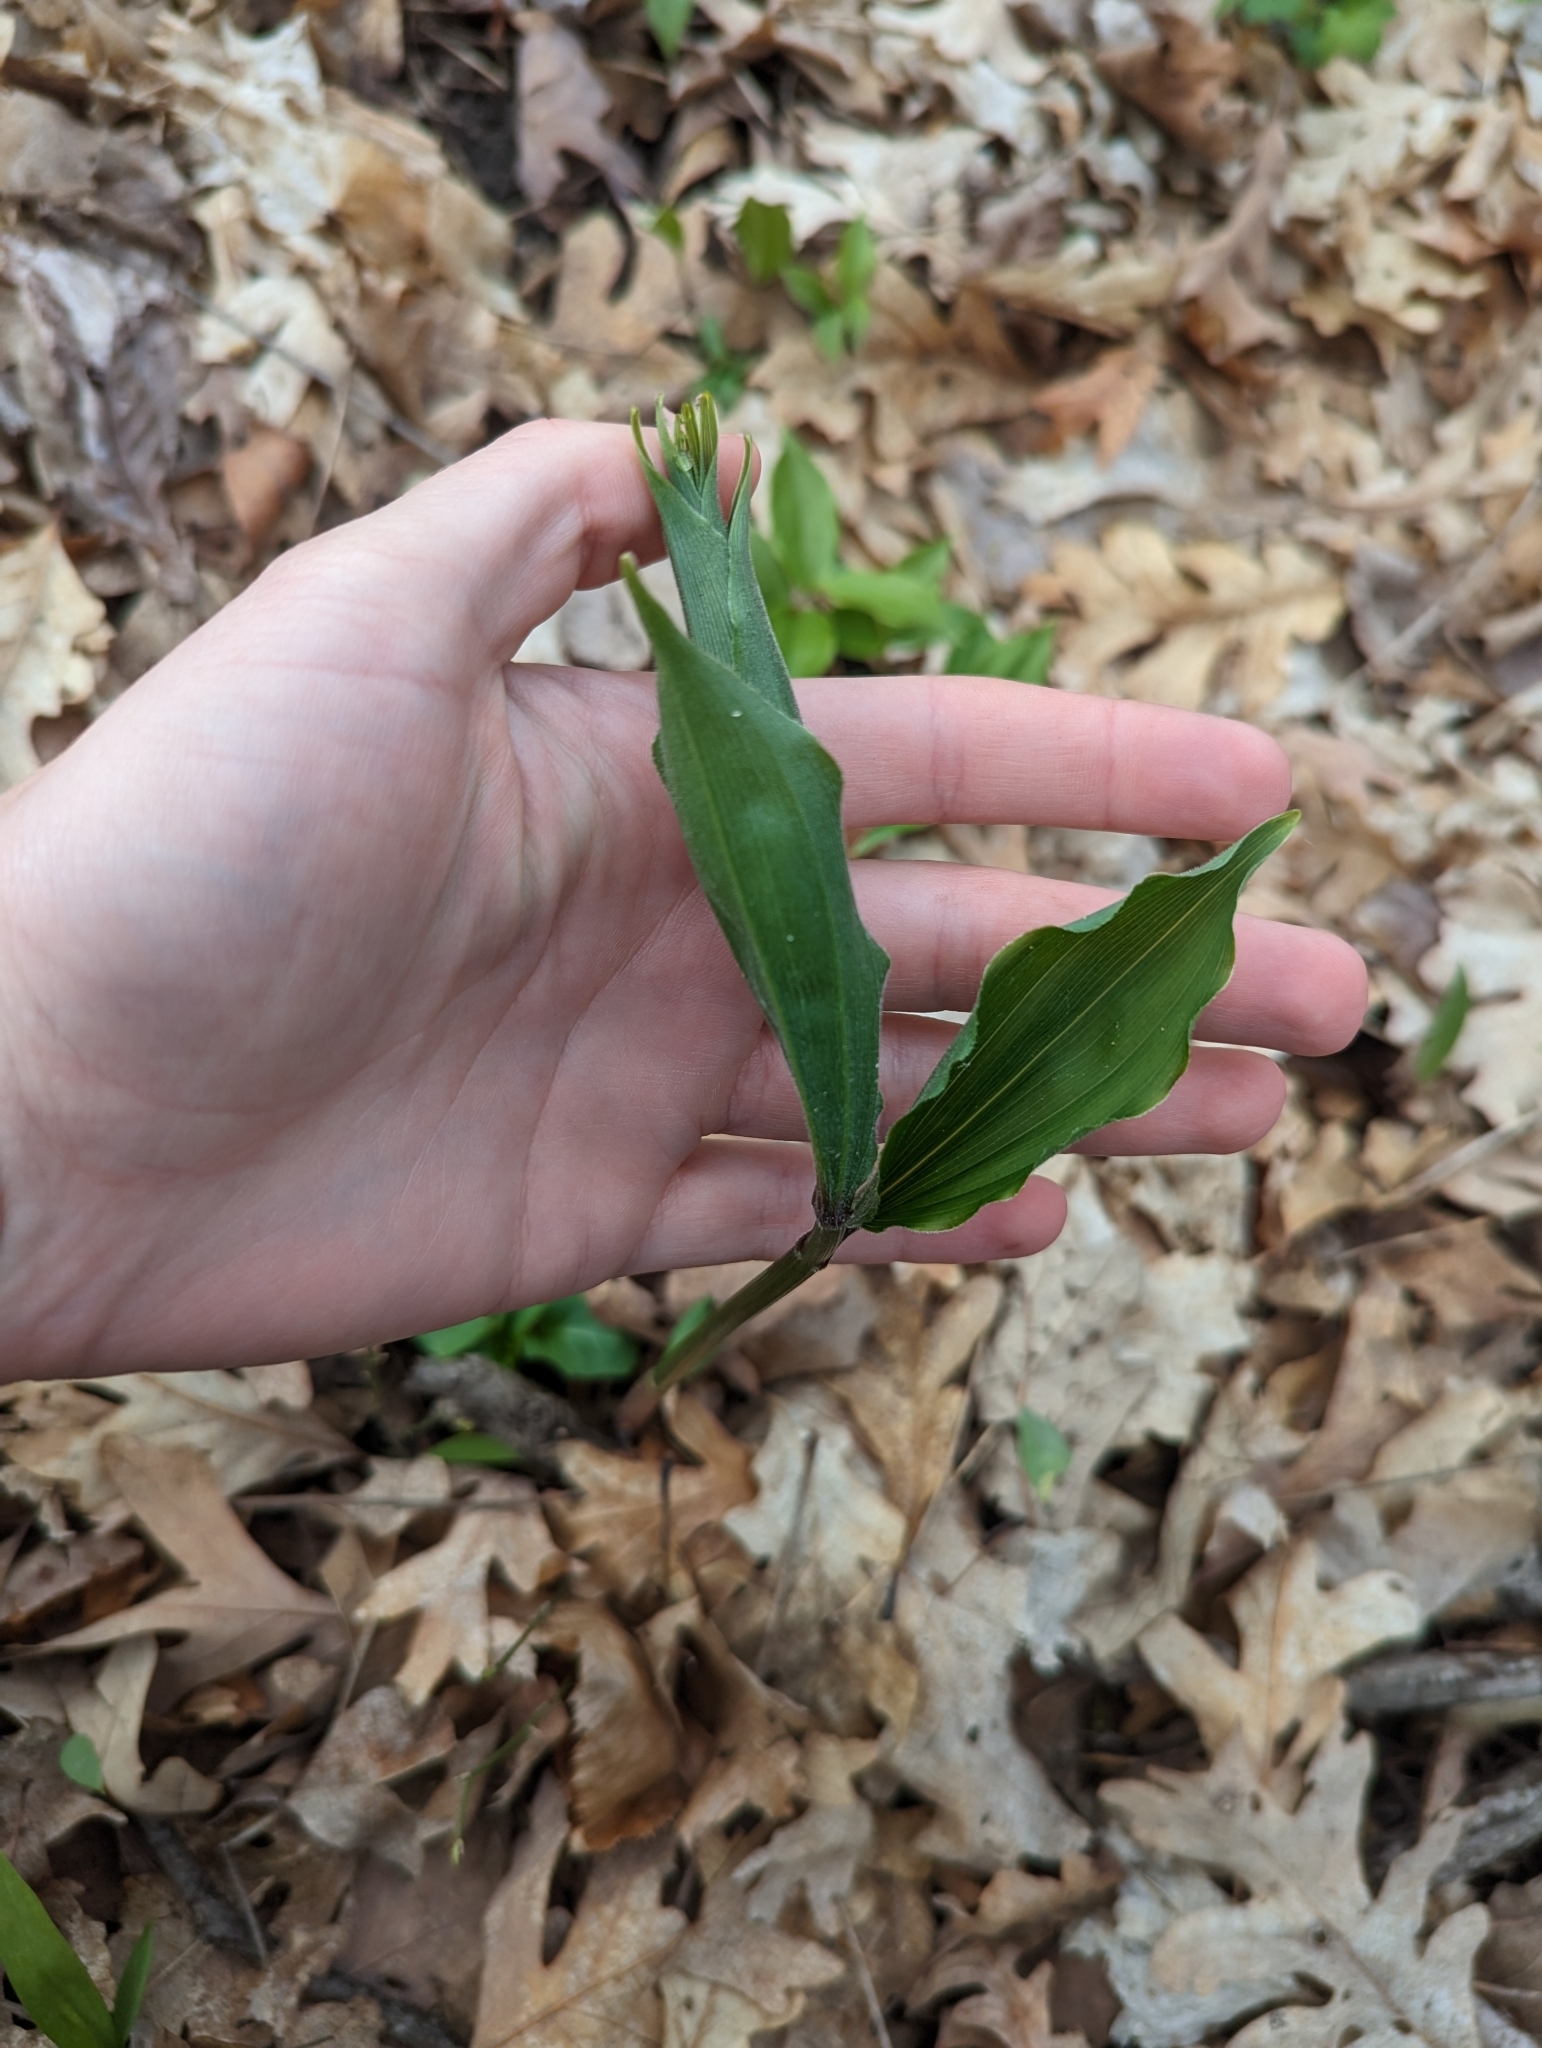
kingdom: Plantae
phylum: Tracheophyta
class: Liliopsida
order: Asparagales
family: Asparagaceae
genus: Maianthemum
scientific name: Maianthemum racemosum
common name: False spikenard
